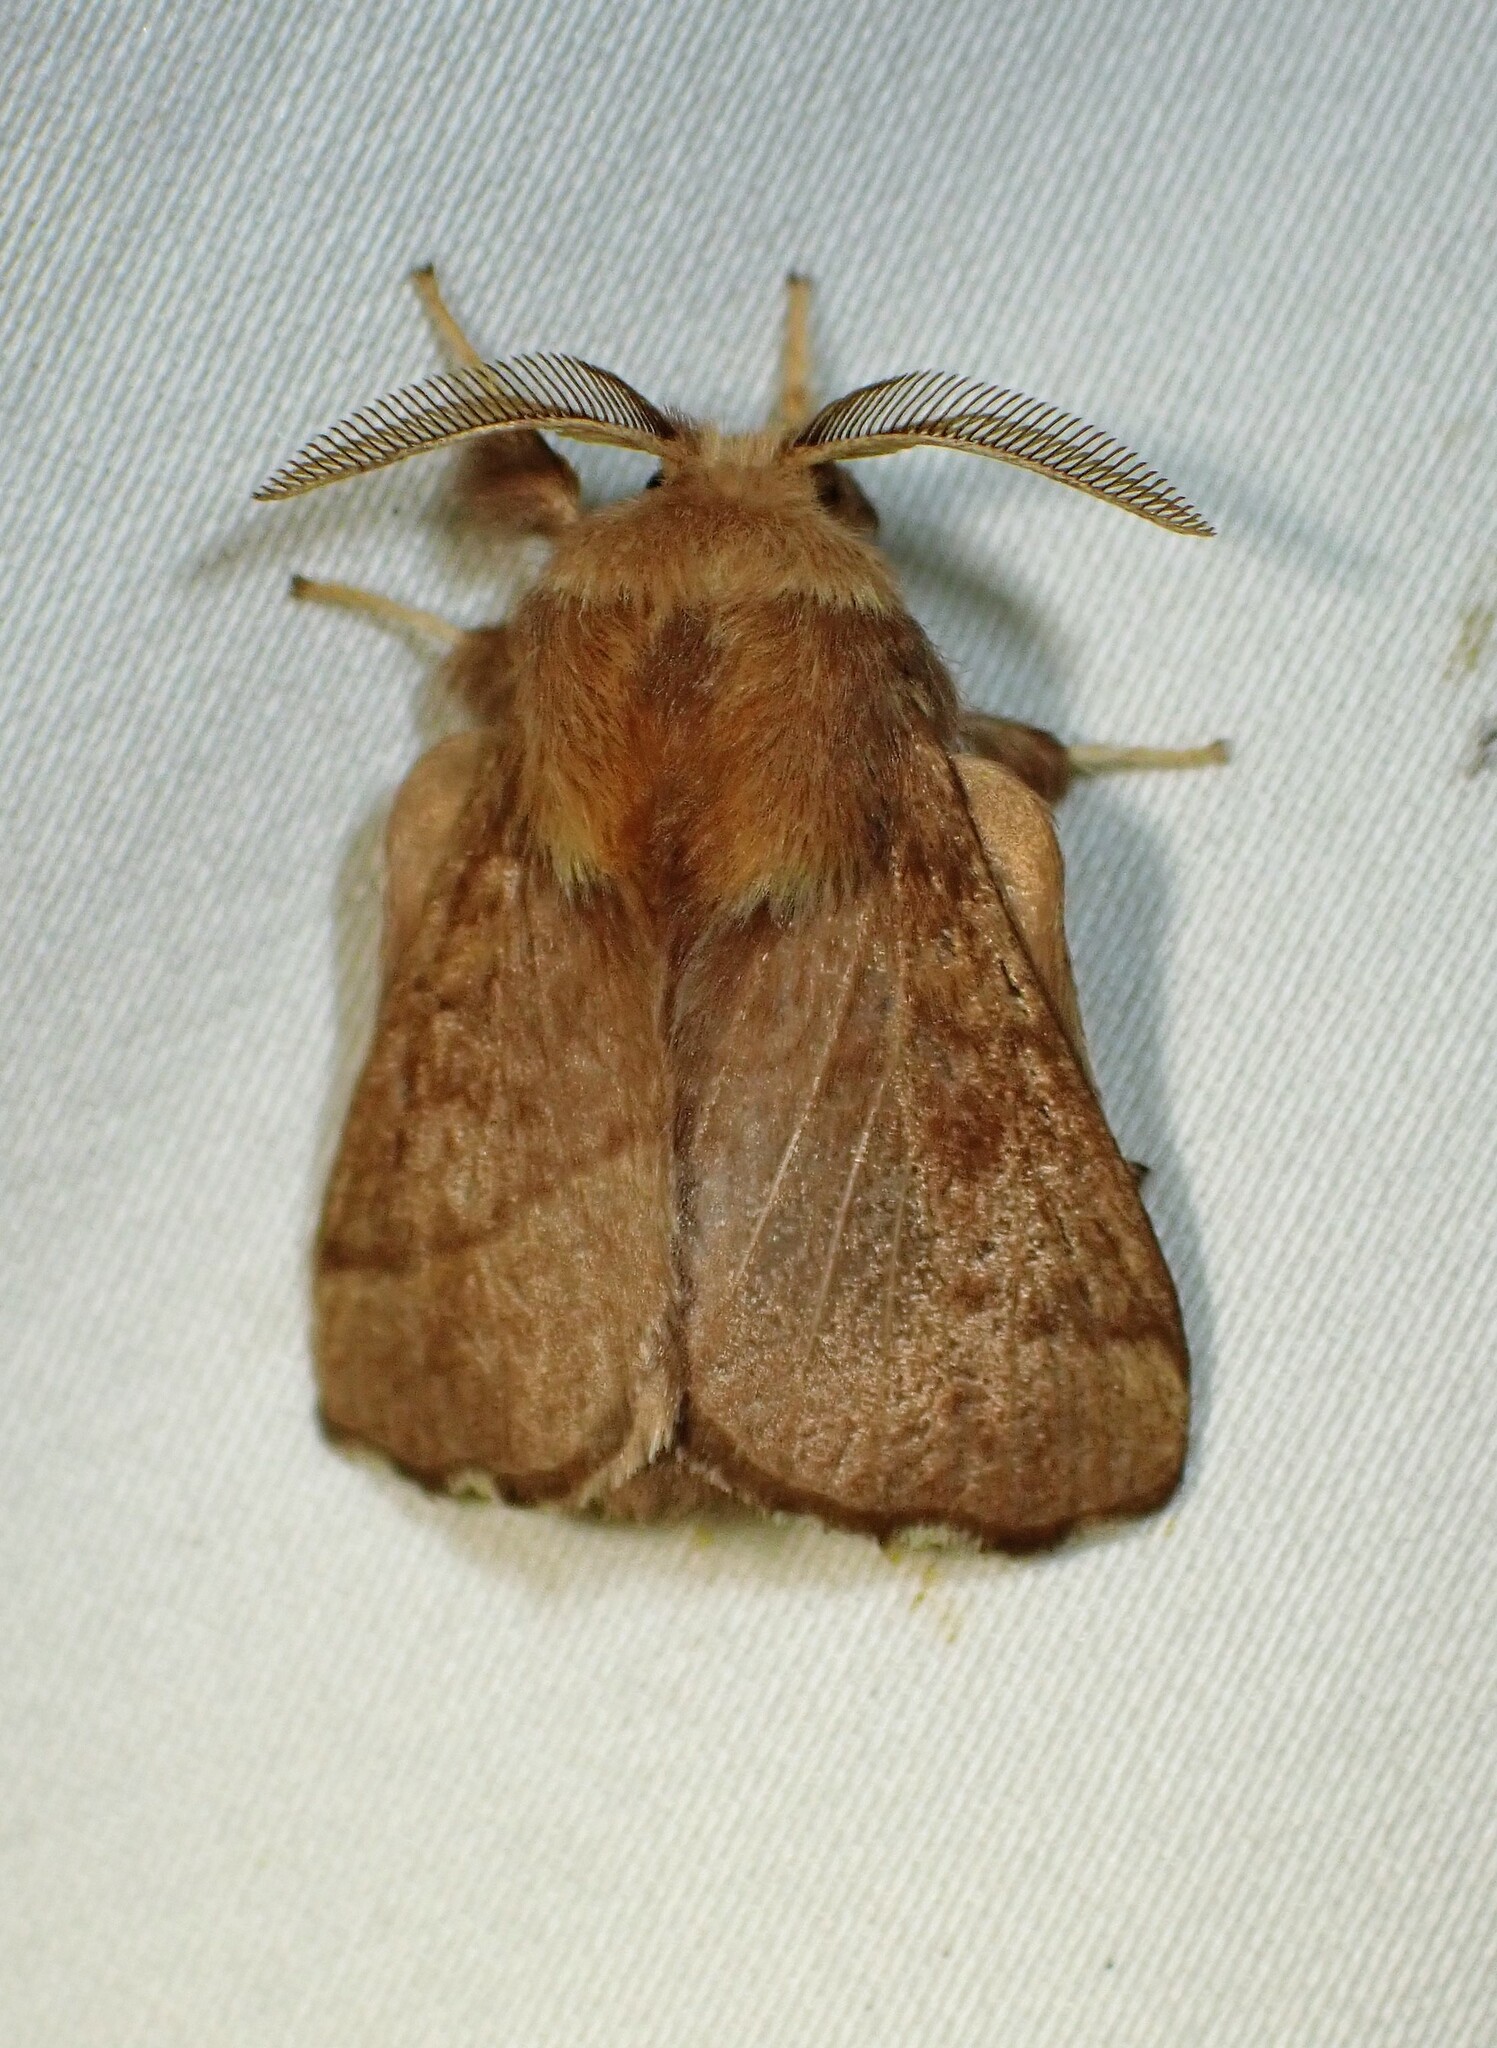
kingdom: Animalia
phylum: Arthropoda
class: Insecta
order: Lepidoptera
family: Lasiocampidae
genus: Malacosoma
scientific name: Malacosoma disstria
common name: Forest tent caterpillar
